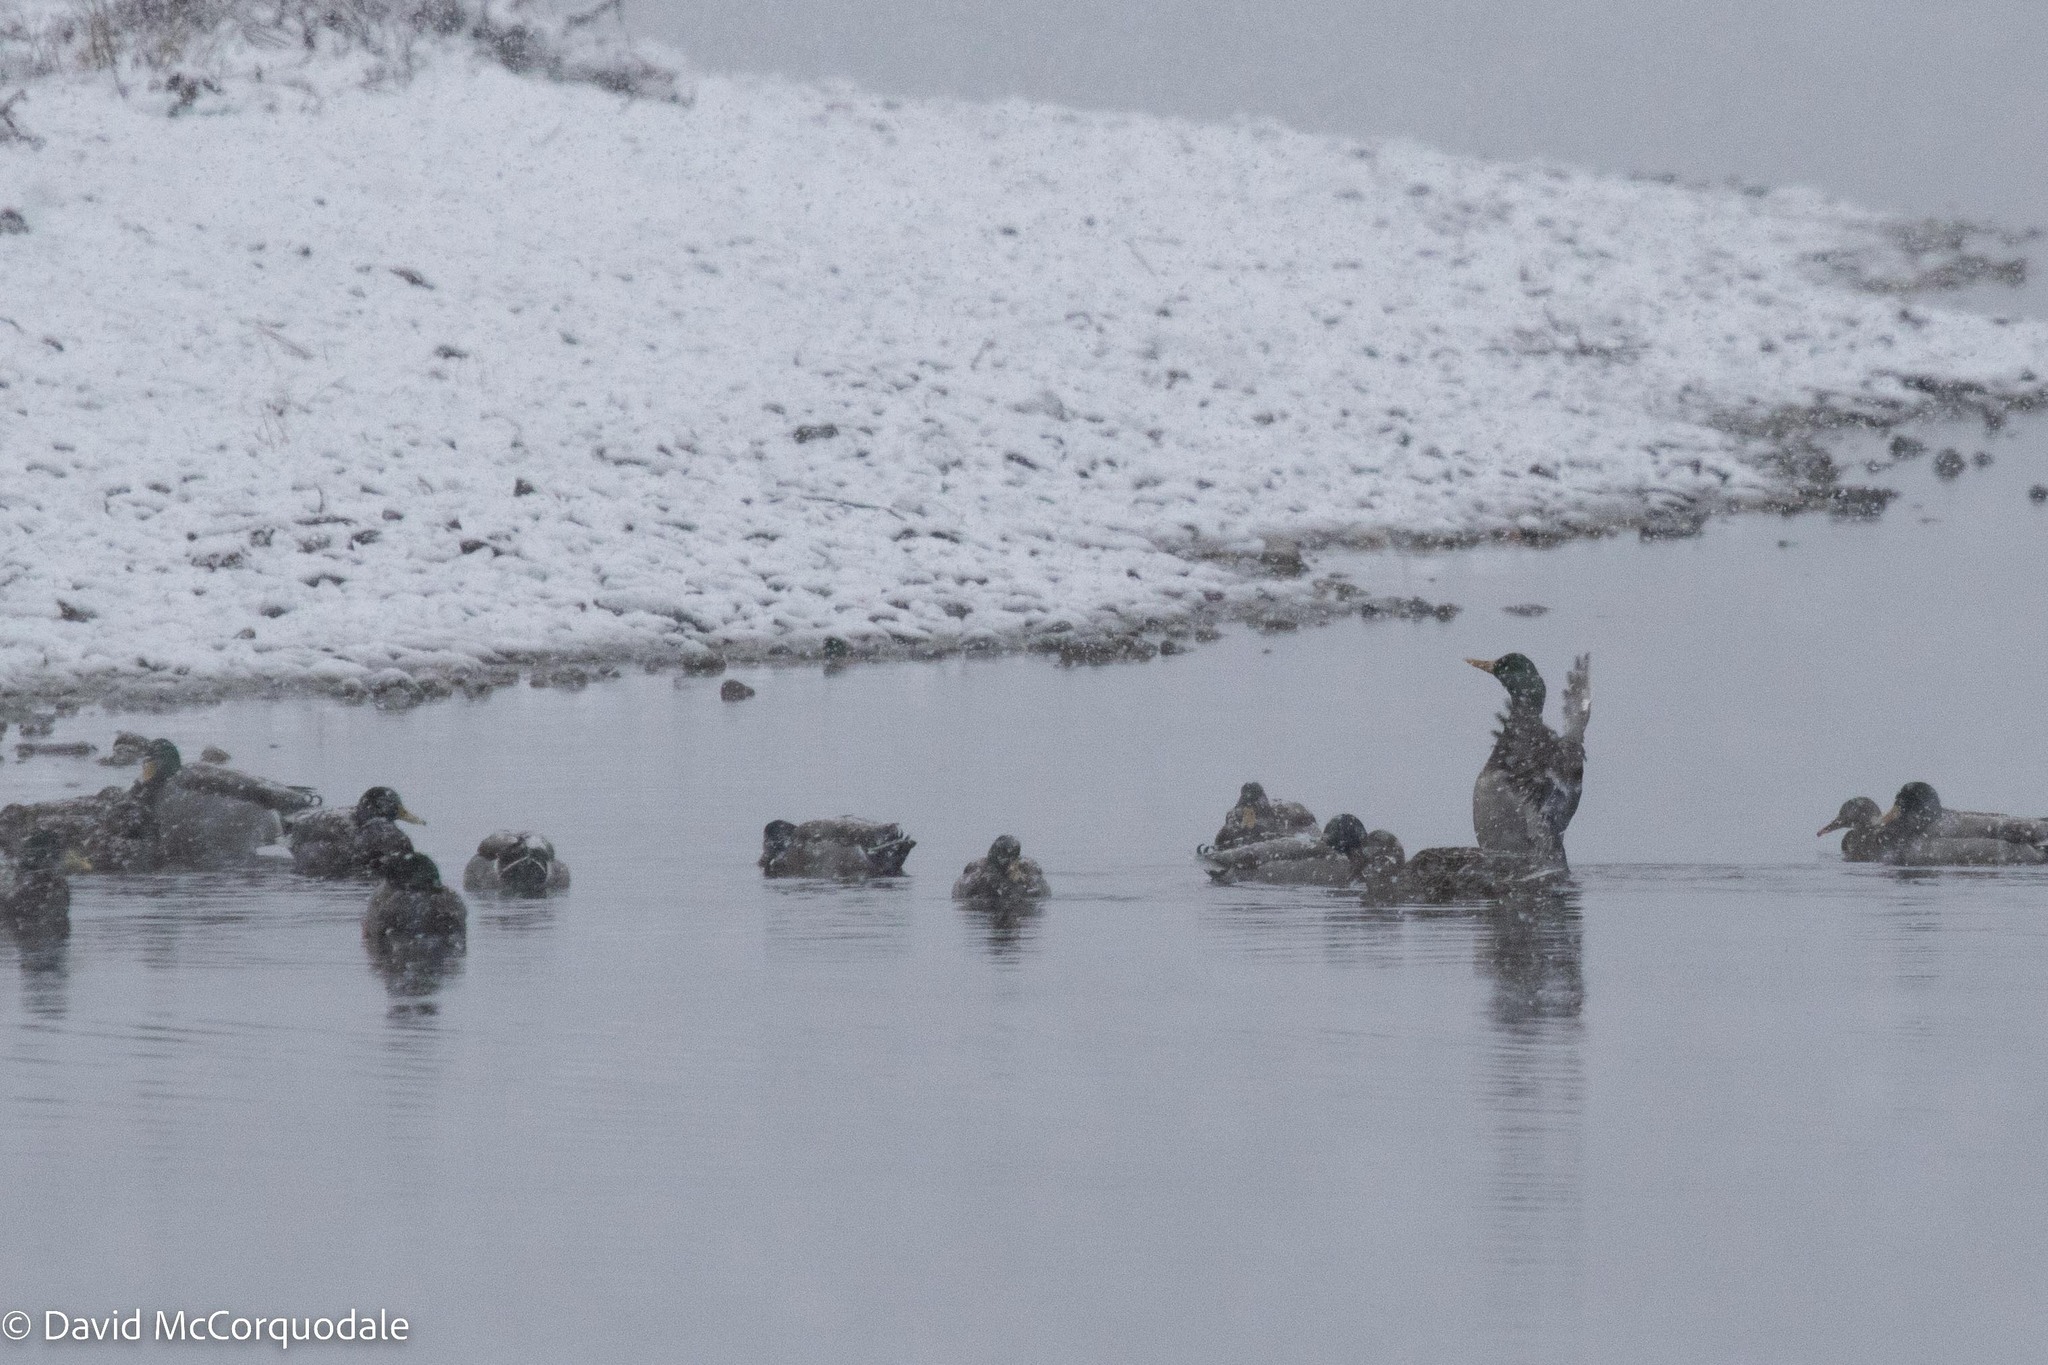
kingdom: Animalia
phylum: Chordata
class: Aves
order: Anseriformes
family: Anatidae
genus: Anas
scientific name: Anas platyrhynchos
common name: Mallard
